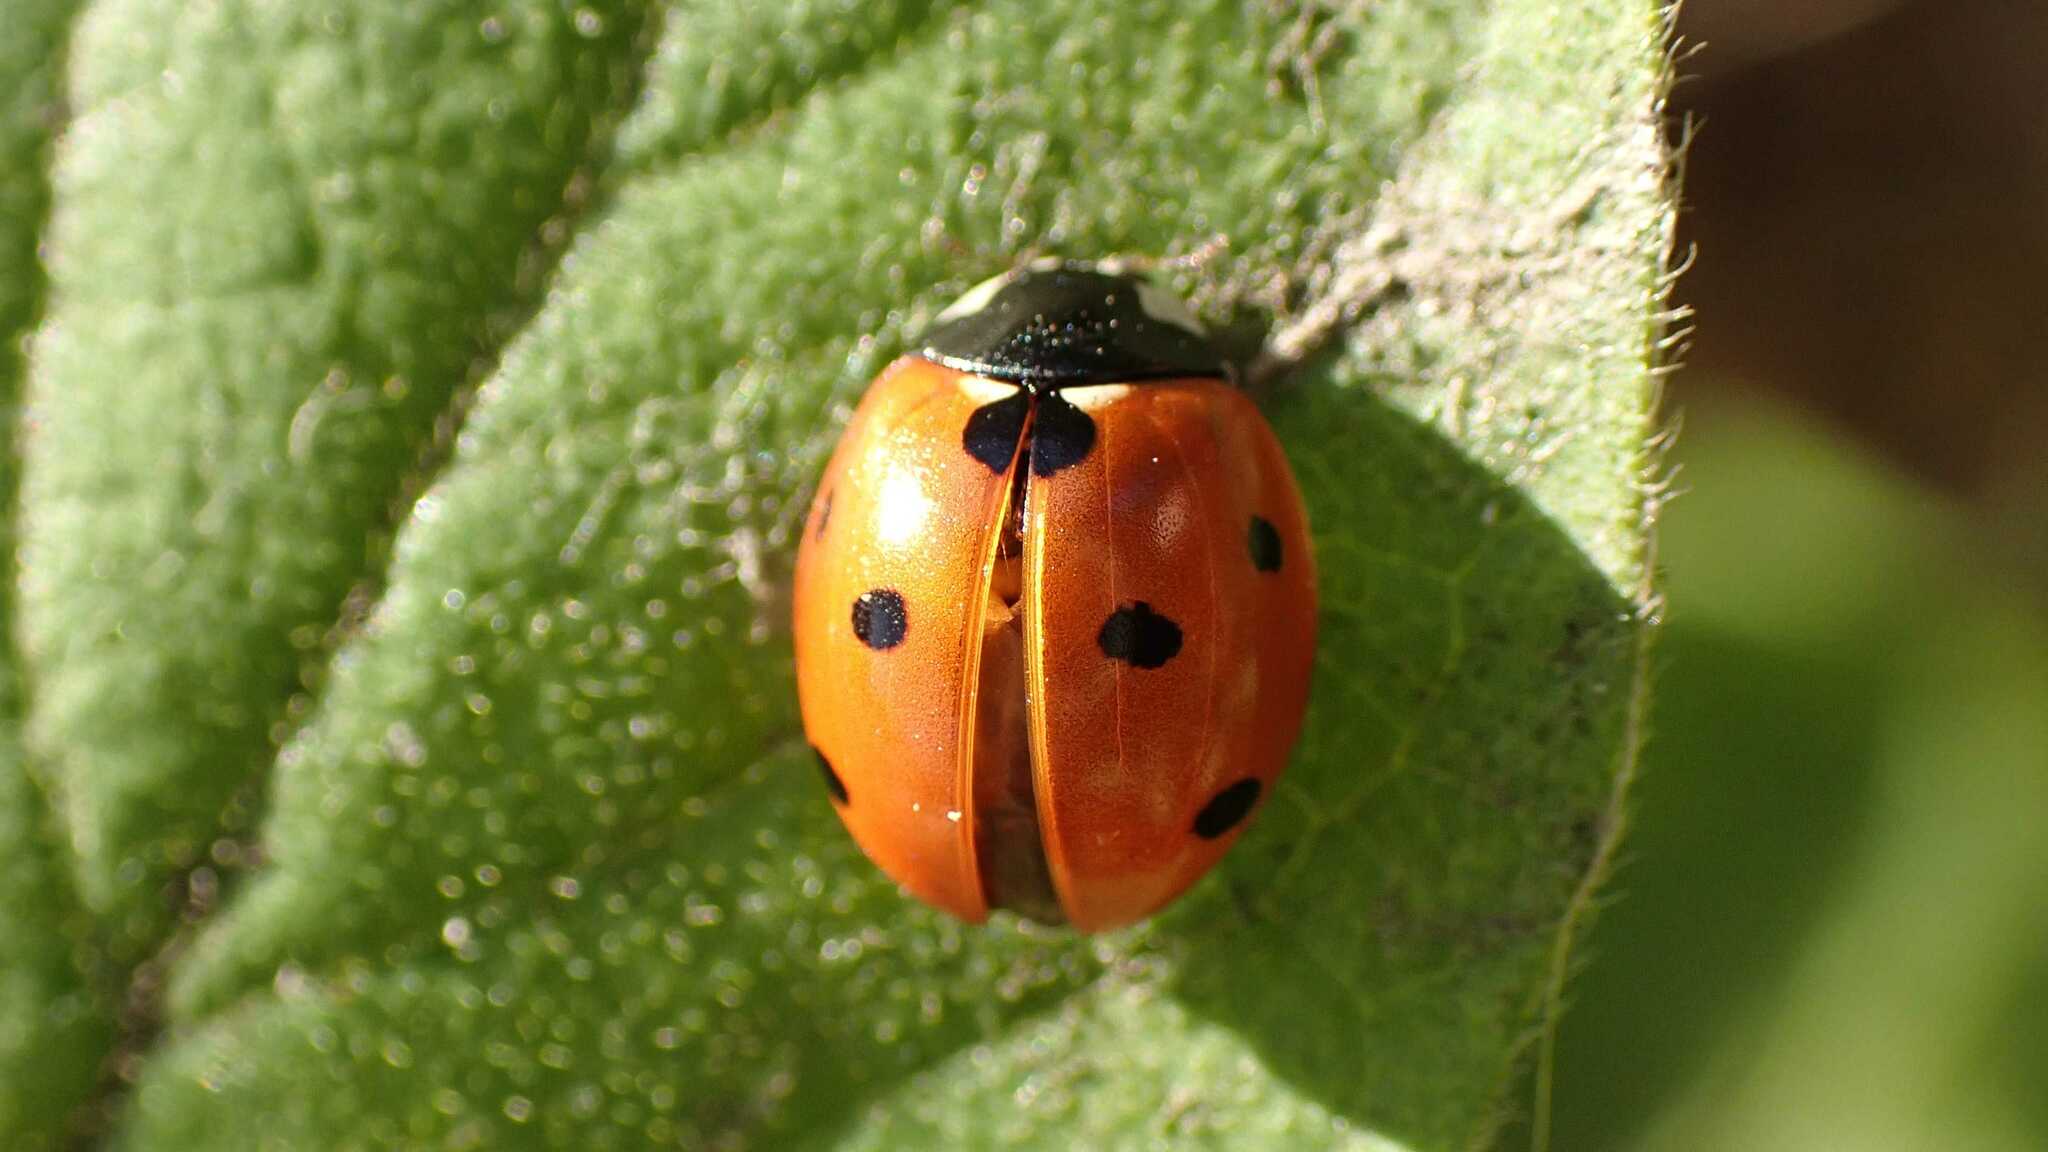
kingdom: Animalia
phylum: Arthropoda
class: Insecta
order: Coleoptera
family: Coccinellidae
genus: Coccinella
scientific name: Coccinella septempunctata
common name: Sevenspotted lady beetle
